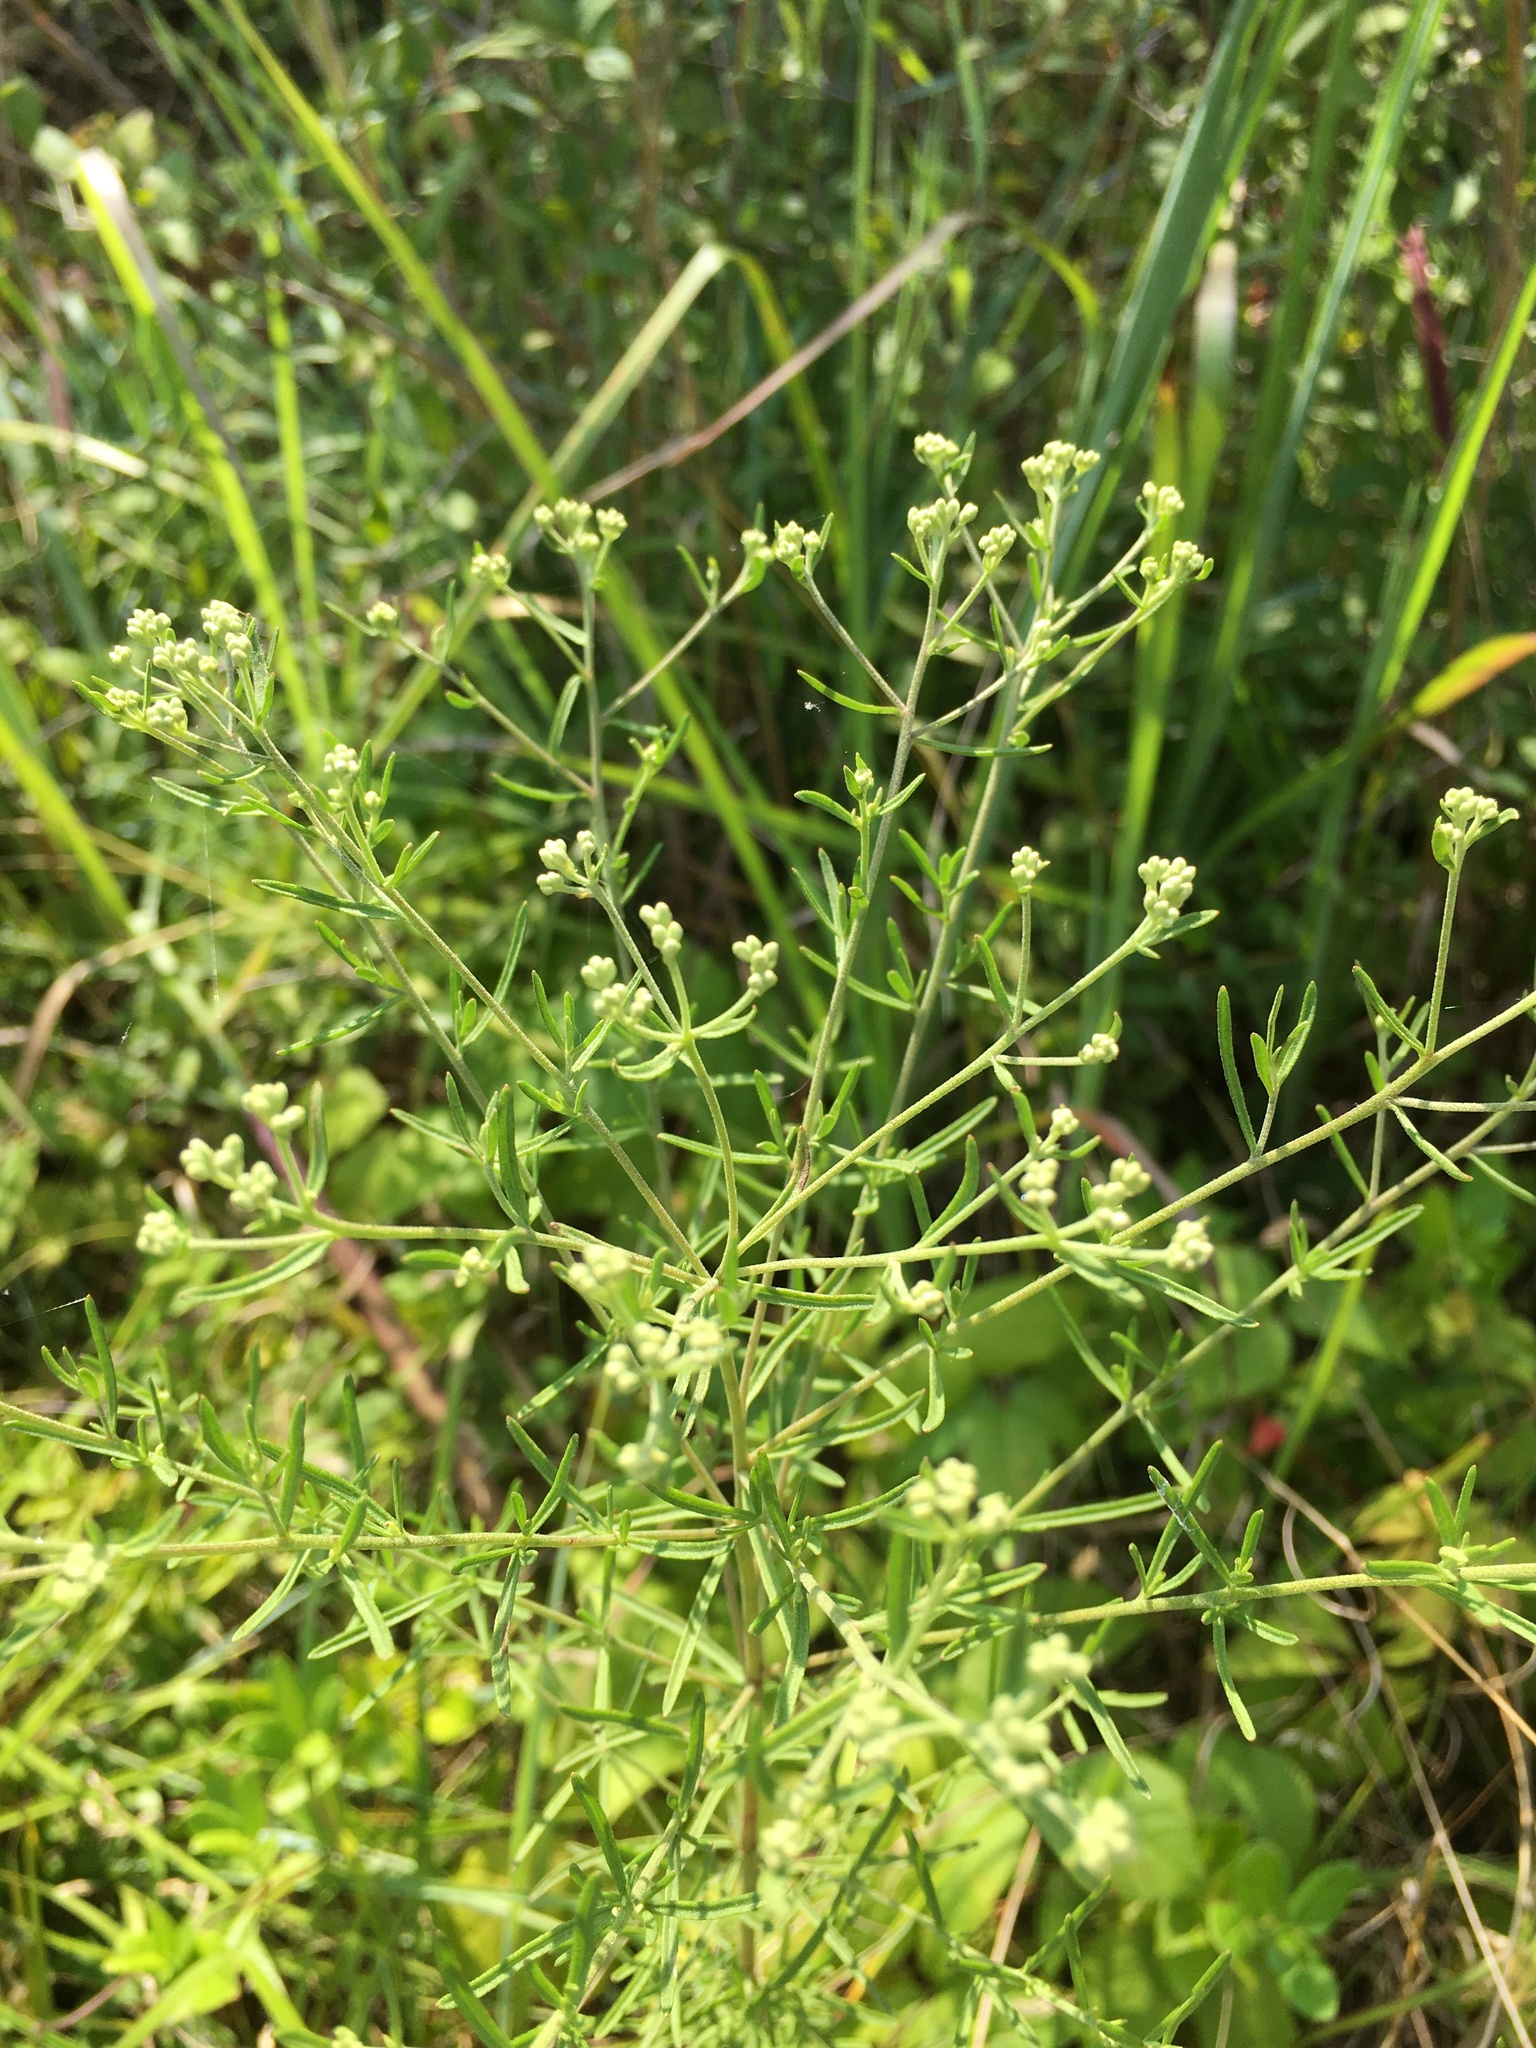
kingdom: Plantae
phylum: Tracheophyta
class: Magnoliopsida
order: Asterales
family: Asteraceae
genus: Eupatorium
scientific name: Eupatorium hyssopifolium
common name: Hyssop-leaf thoroughwort
